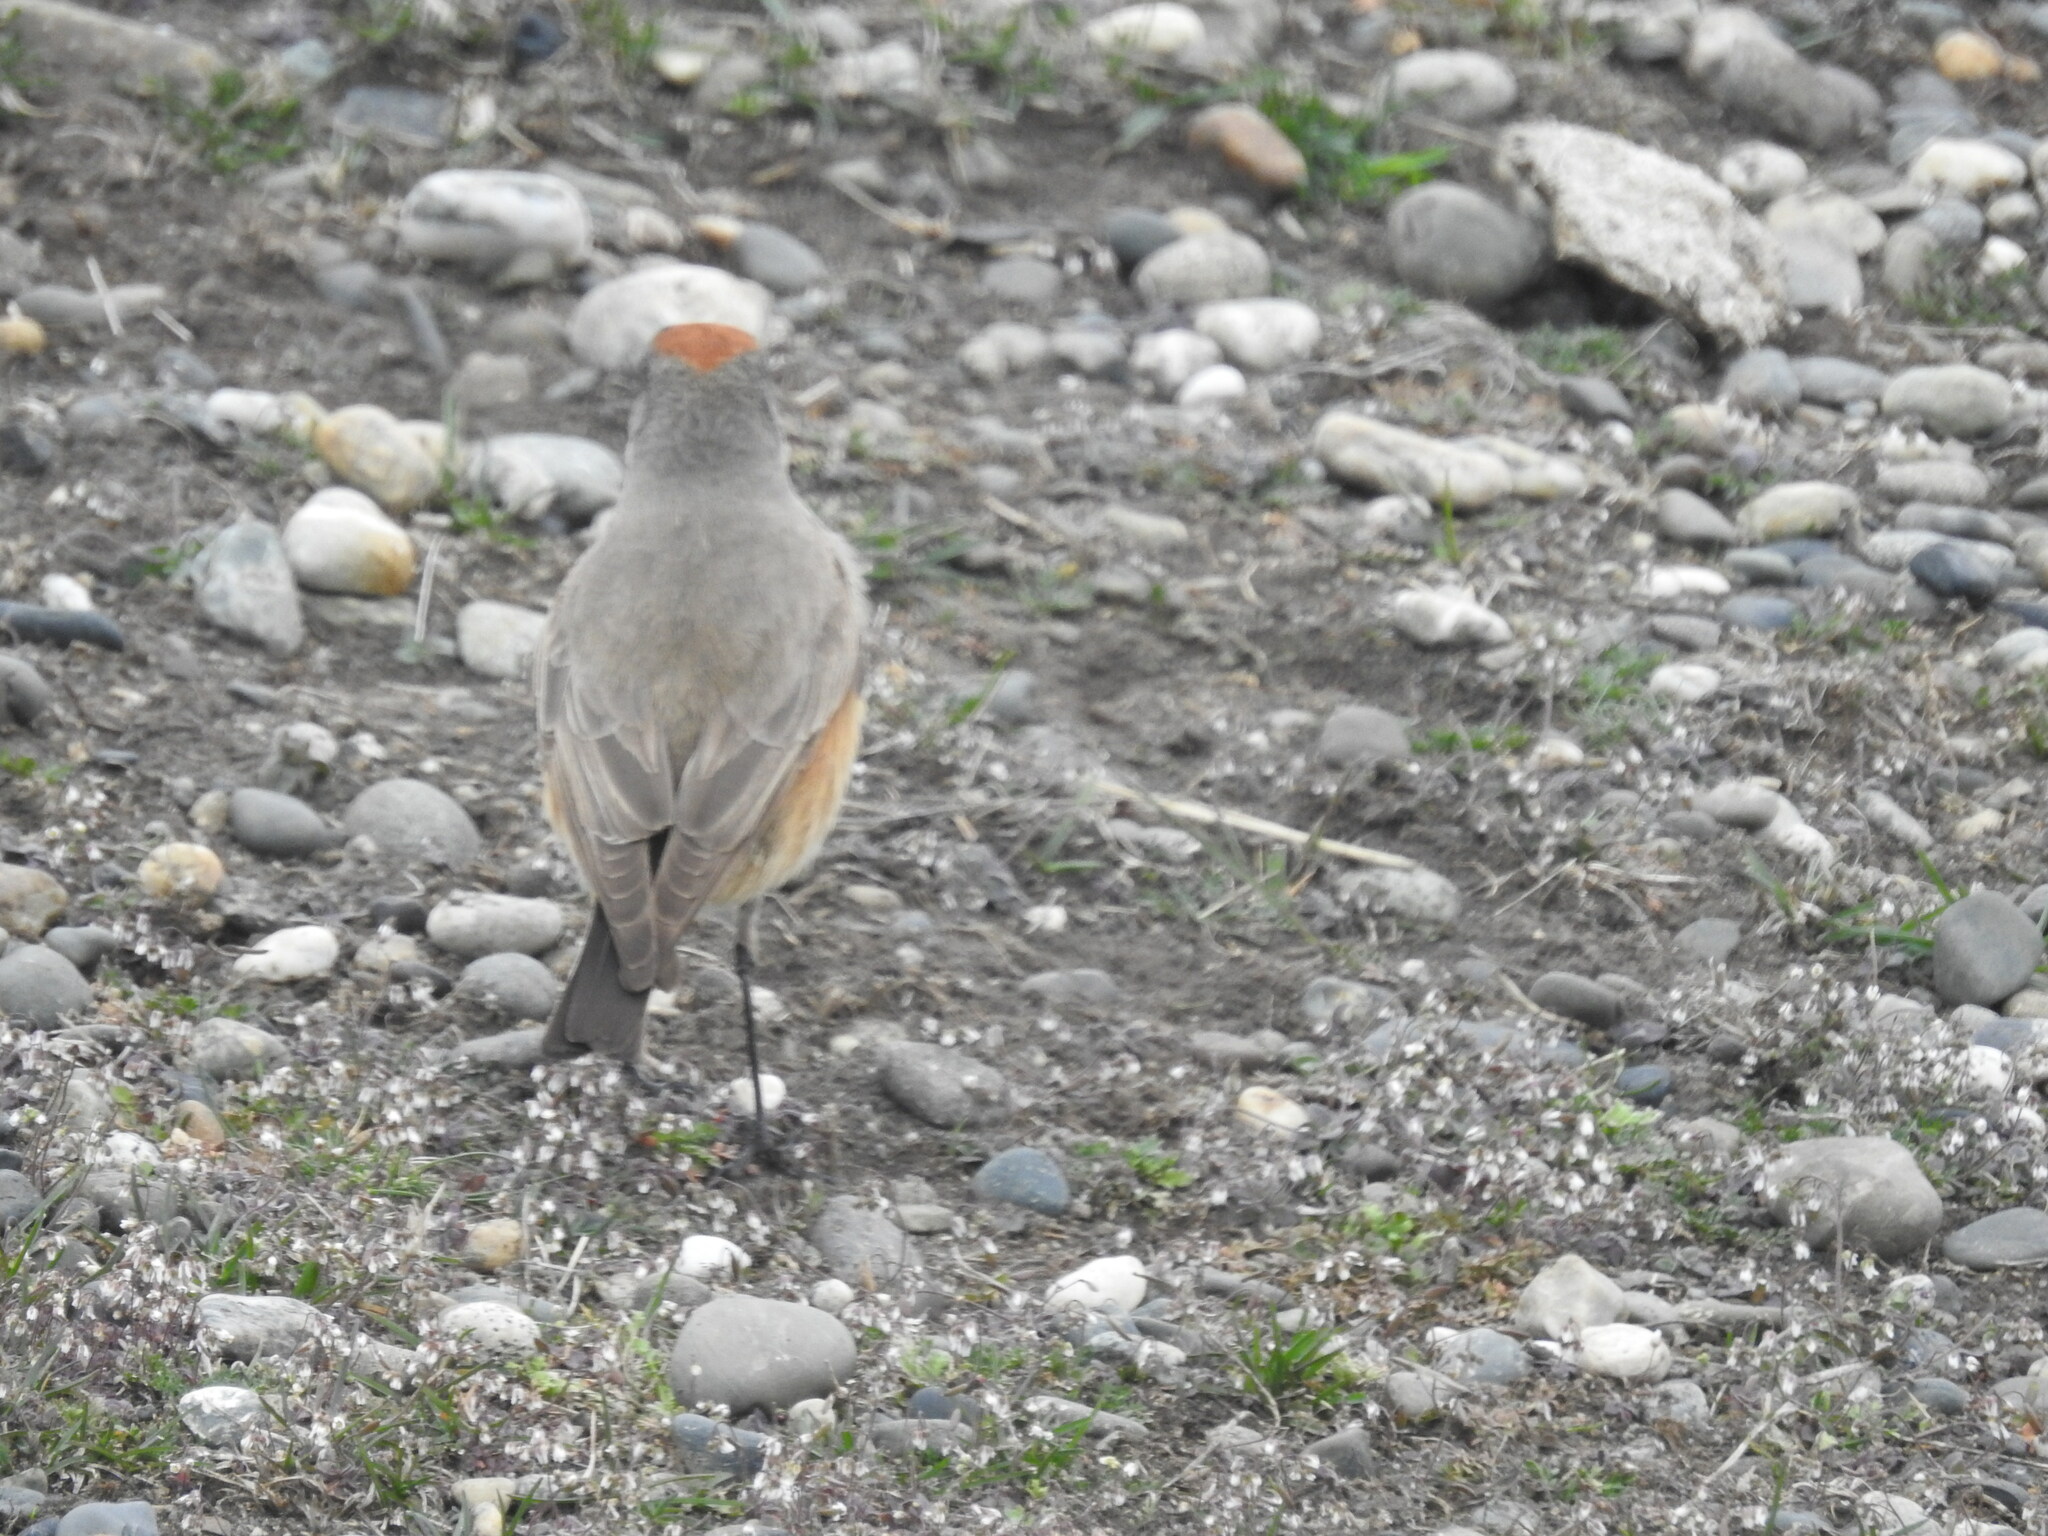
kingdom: Animalia
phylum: Chordata
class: Aves
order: Passeriformes
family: Tyrannidae
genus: Muscisaxicola
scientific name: Muscisaxicola capistratus
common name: Cinnamon-bellied ground tyrant
